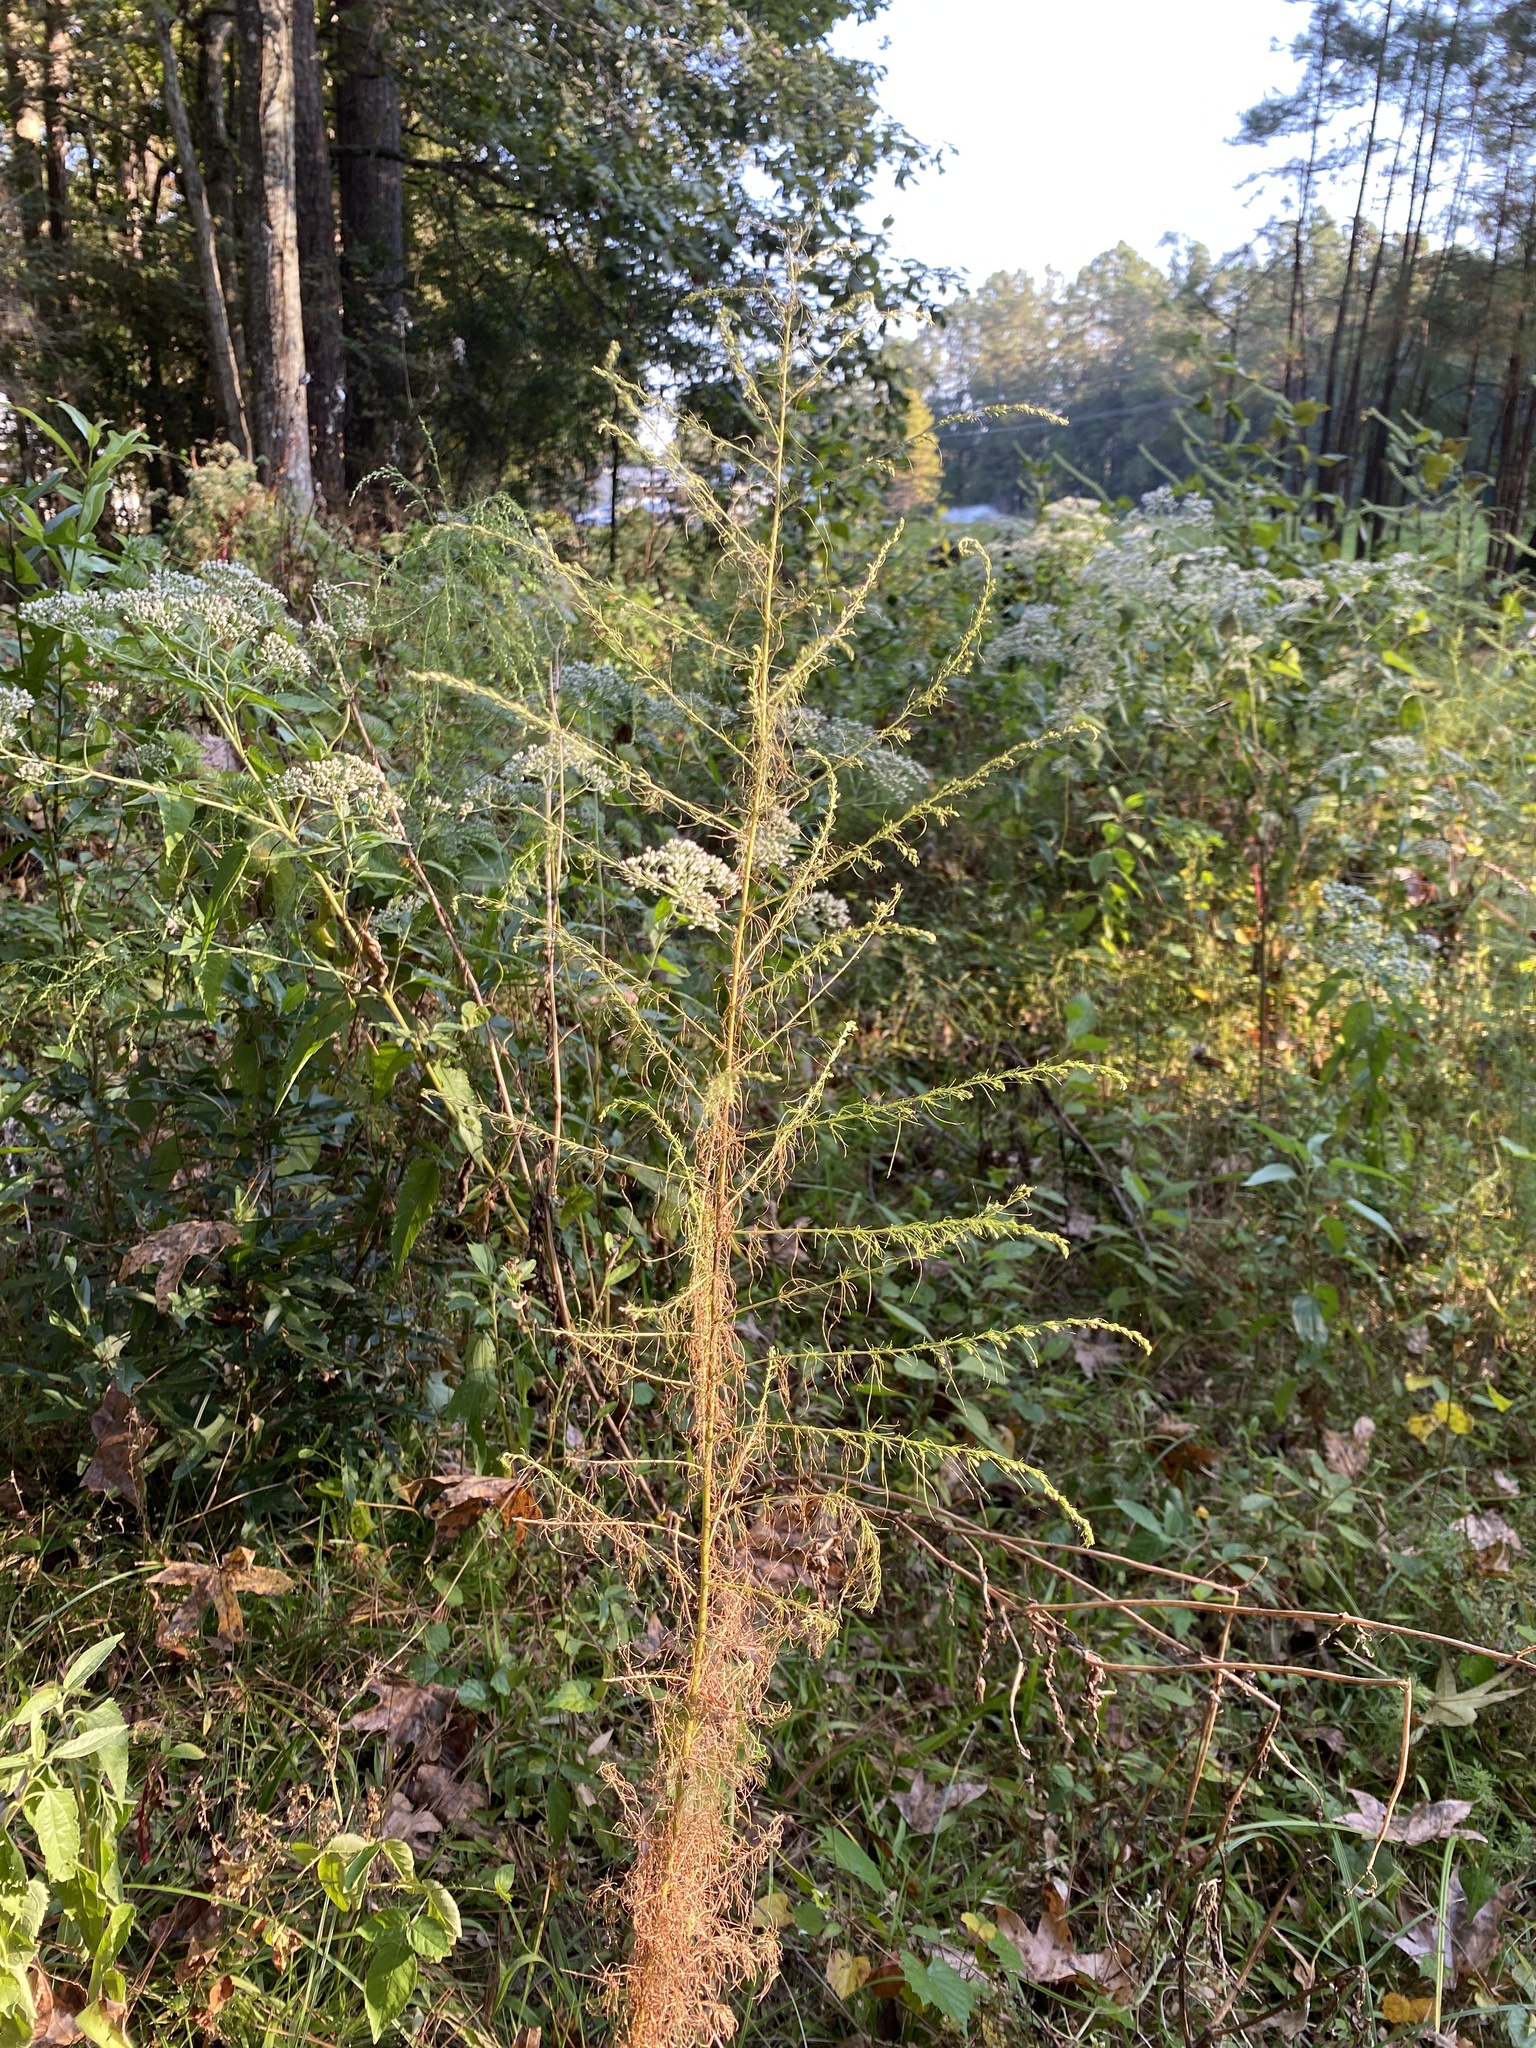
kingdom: Plantae
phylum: Tracheophyta
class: Magnoliopsida
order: Asterales
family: Asteraceae
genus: Eupatorium
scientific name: Eupatorium capillifolium
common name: Dog-fennel
